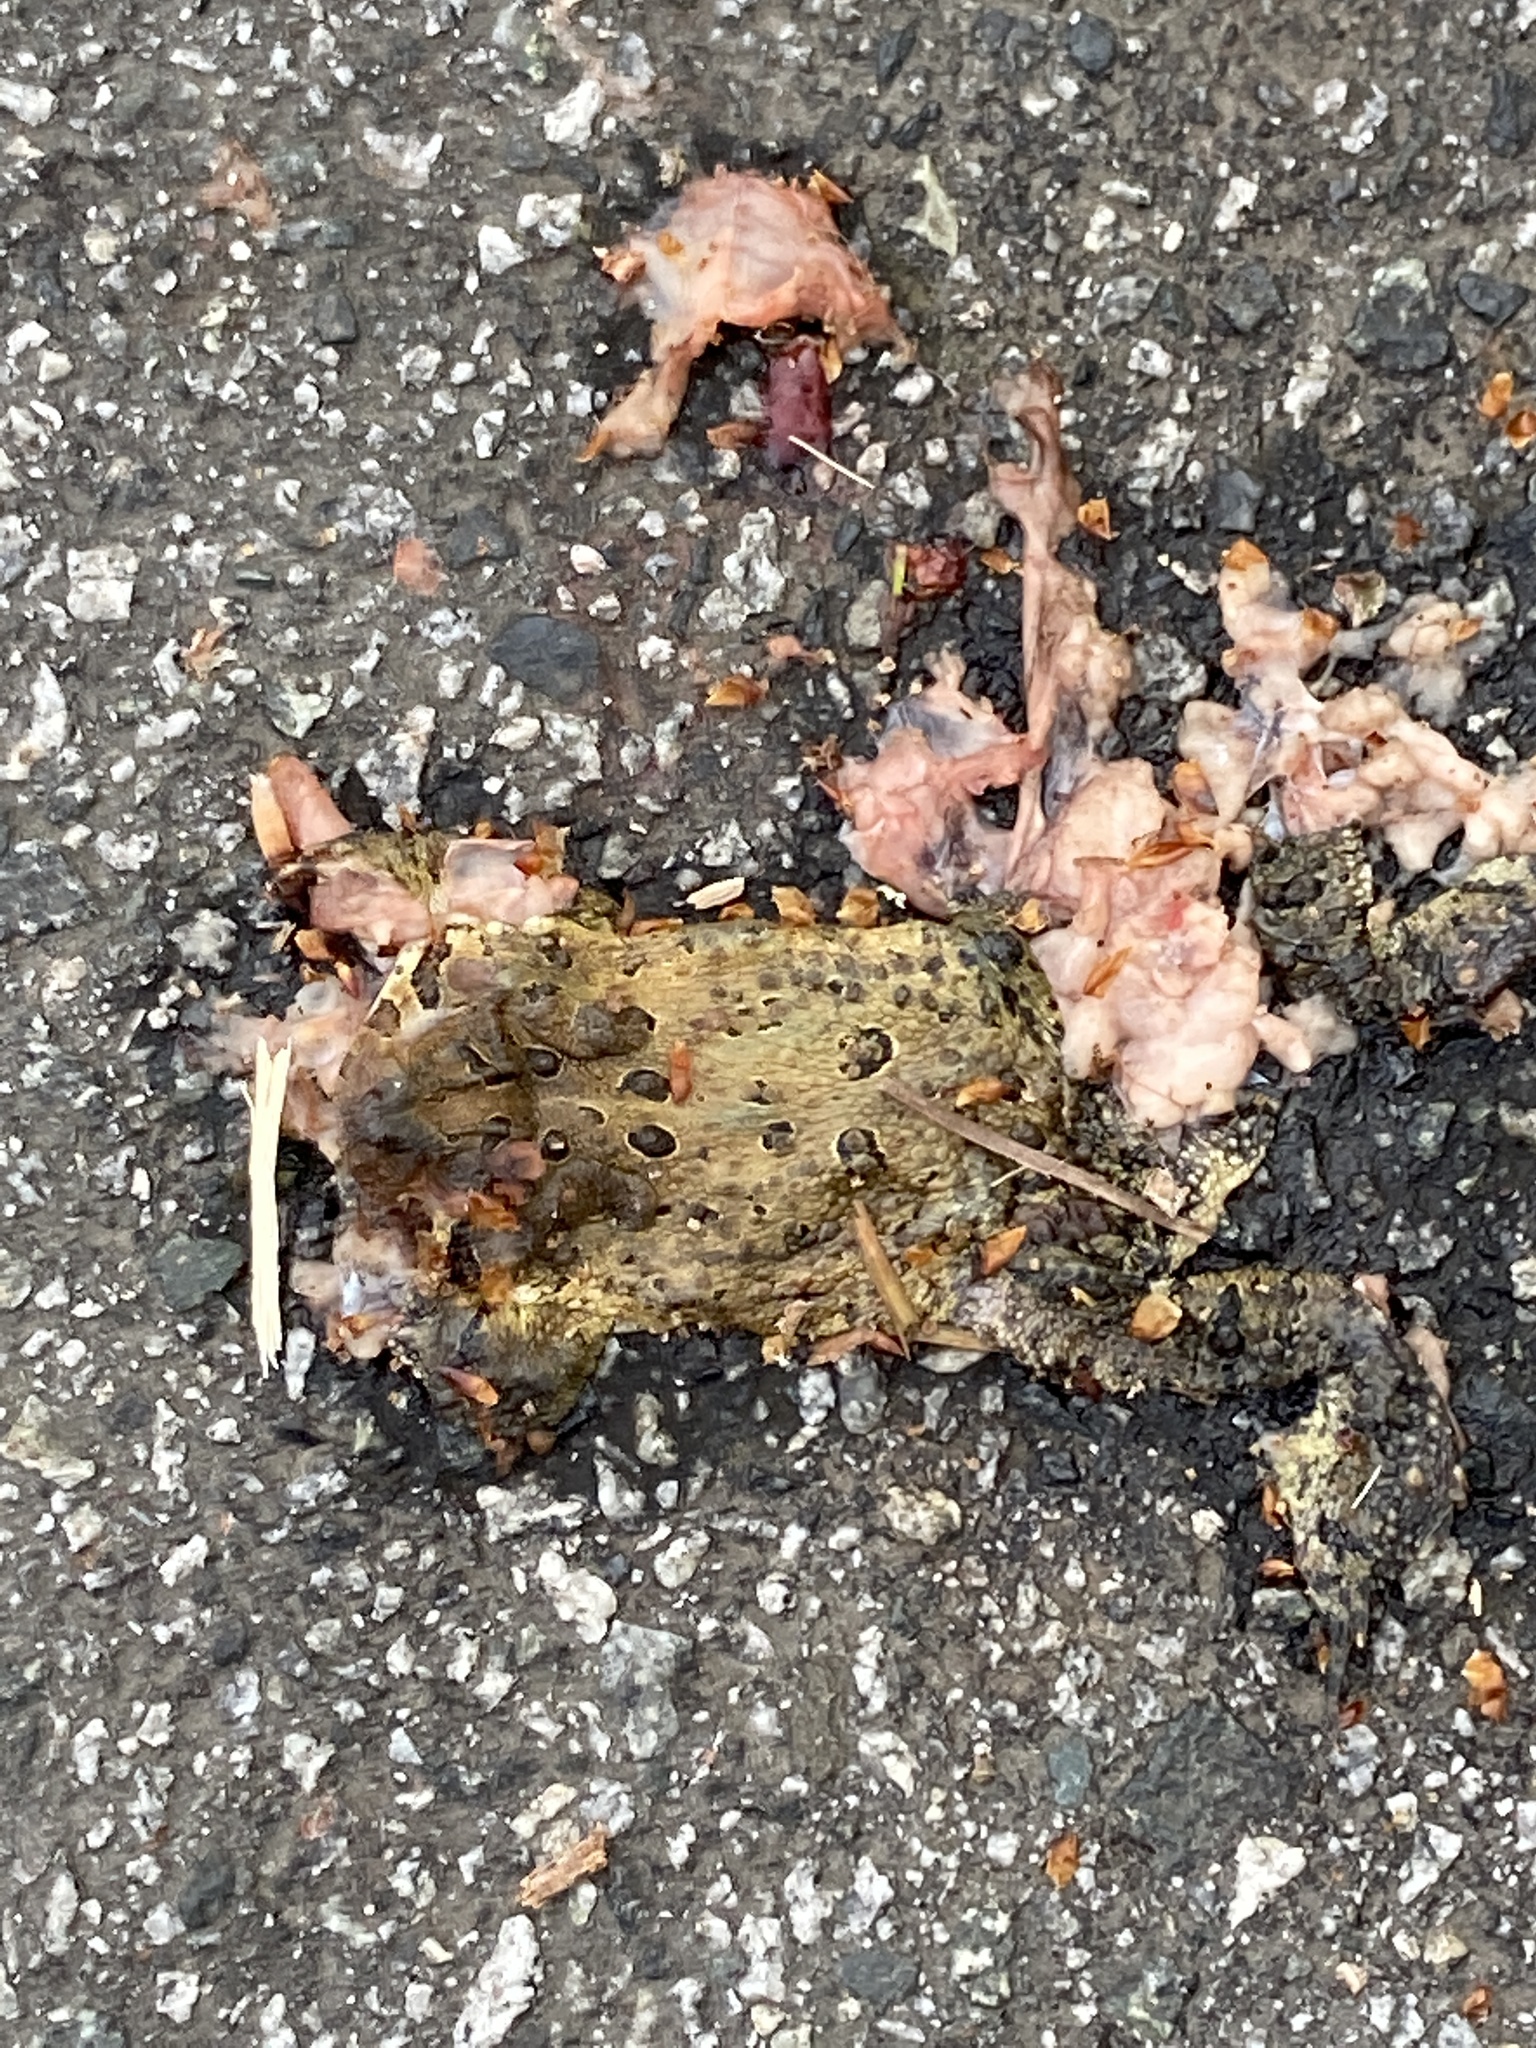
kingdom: Animalia
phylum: Chordata
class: Amphibia
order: Anura
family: Bufonidae
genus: Anaxyrus
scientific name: Anaxyrus americanus
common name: American toad
